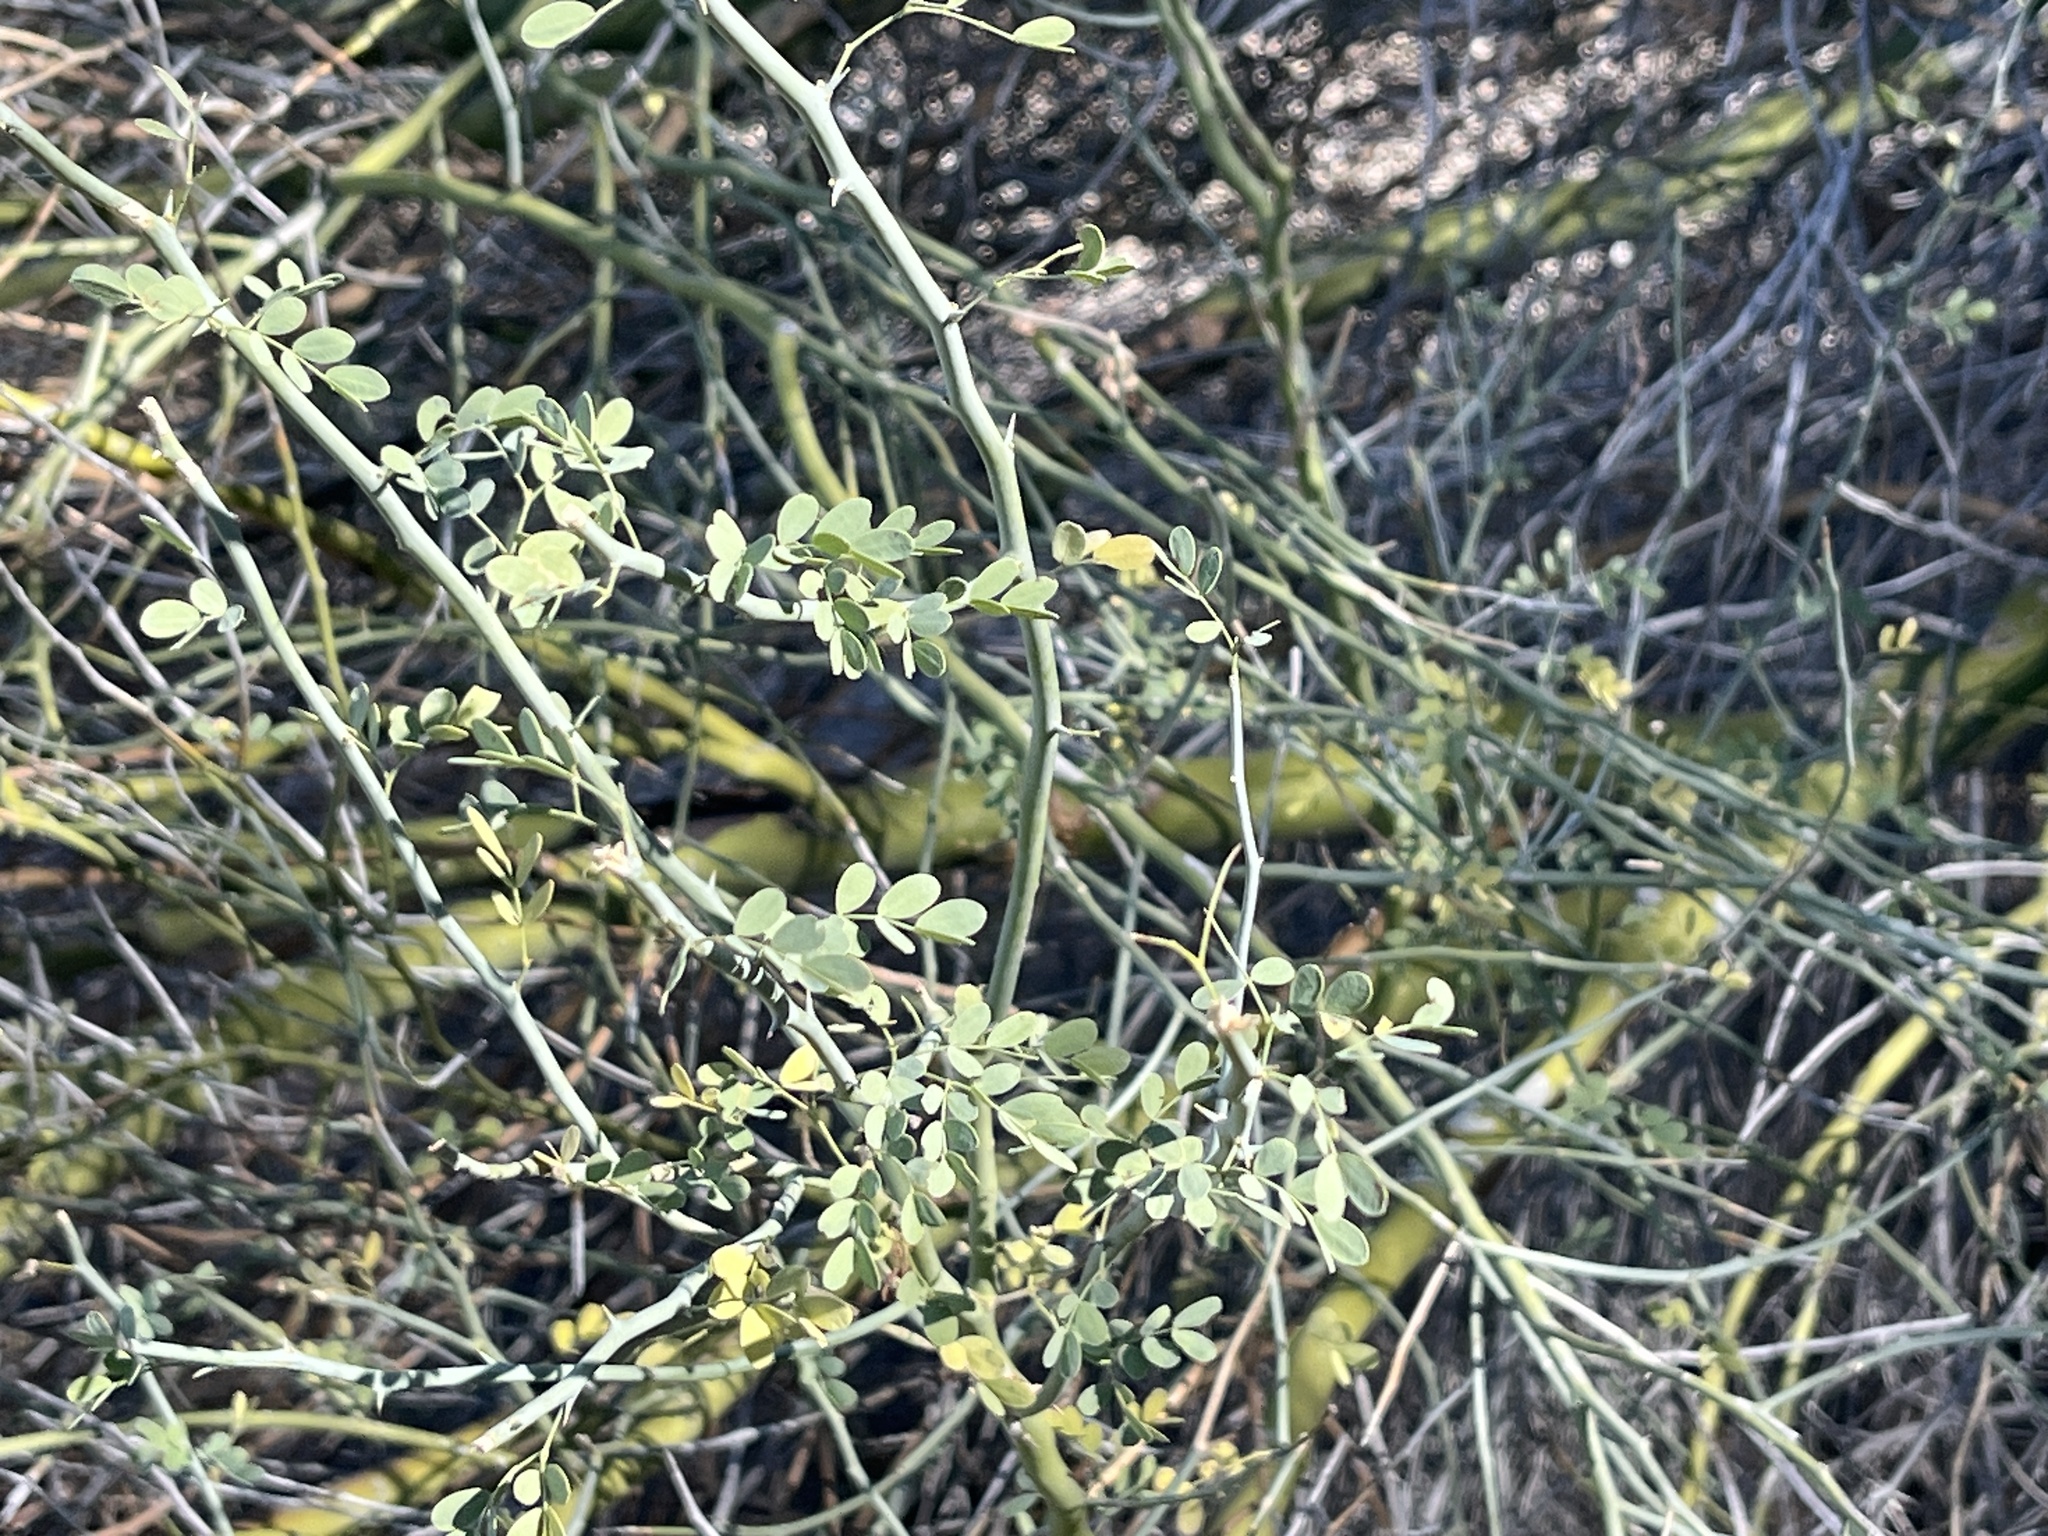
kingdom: Plantae
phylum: Tracheophyta
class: Magnoliopsida
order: Fabales
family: Fabaceae
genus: Parkinsonia
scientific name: Parkinsonia florida
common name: Blue paloverde
